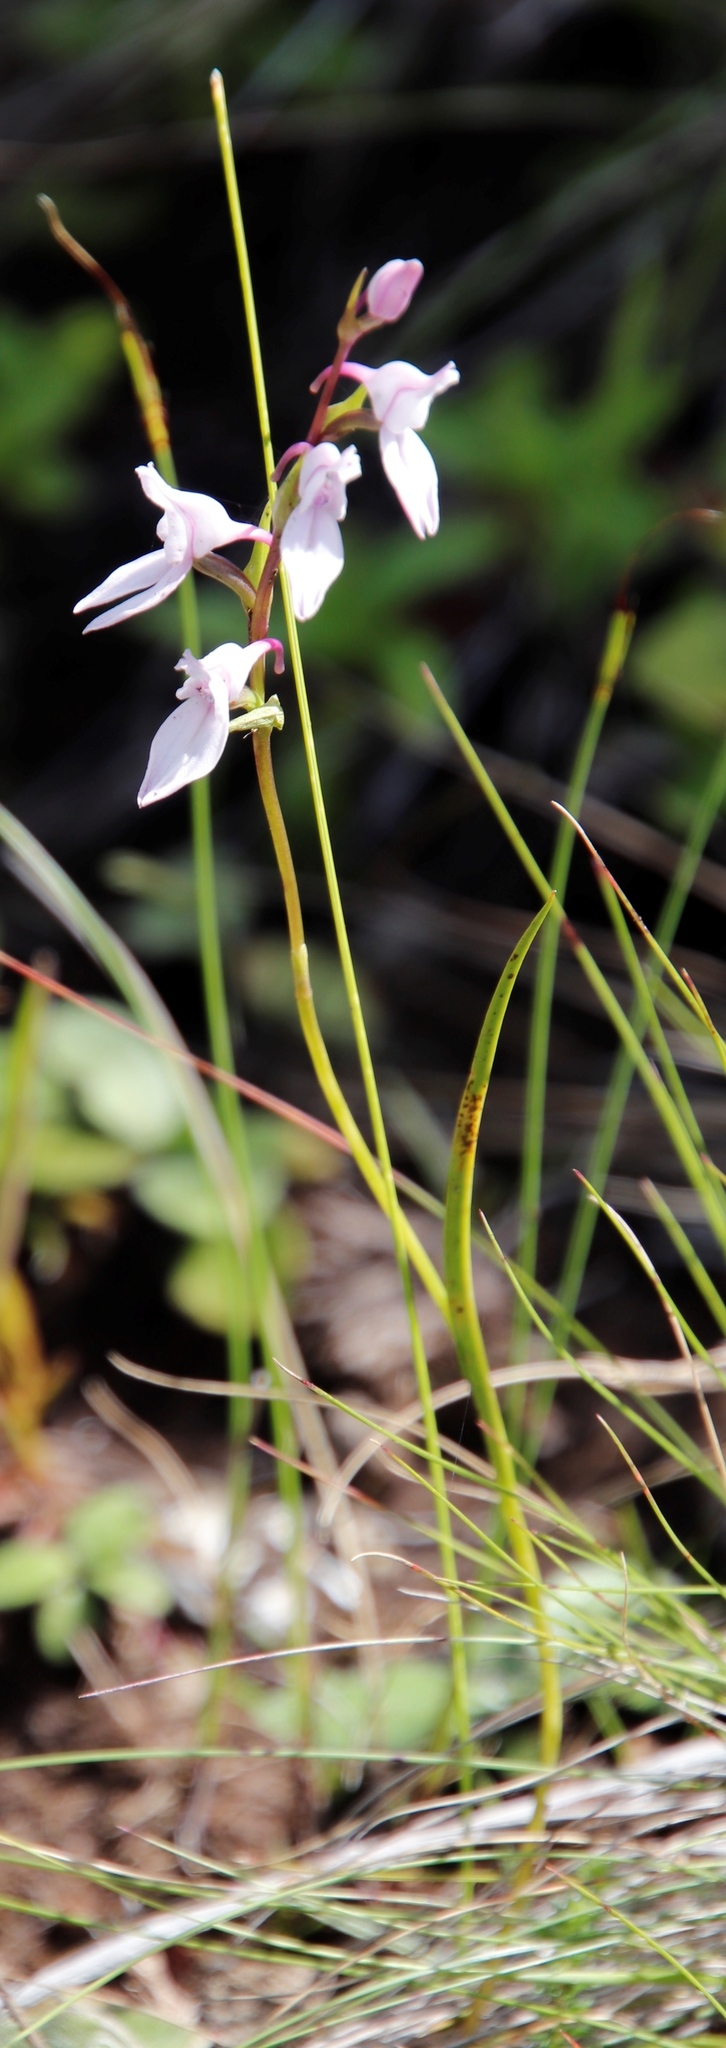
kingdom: Plantae
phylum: Tracheophyta
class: Liliopsida
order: Asparagales
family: Orchidaceae
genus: Brownleea
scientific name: Brownleea recurvata
